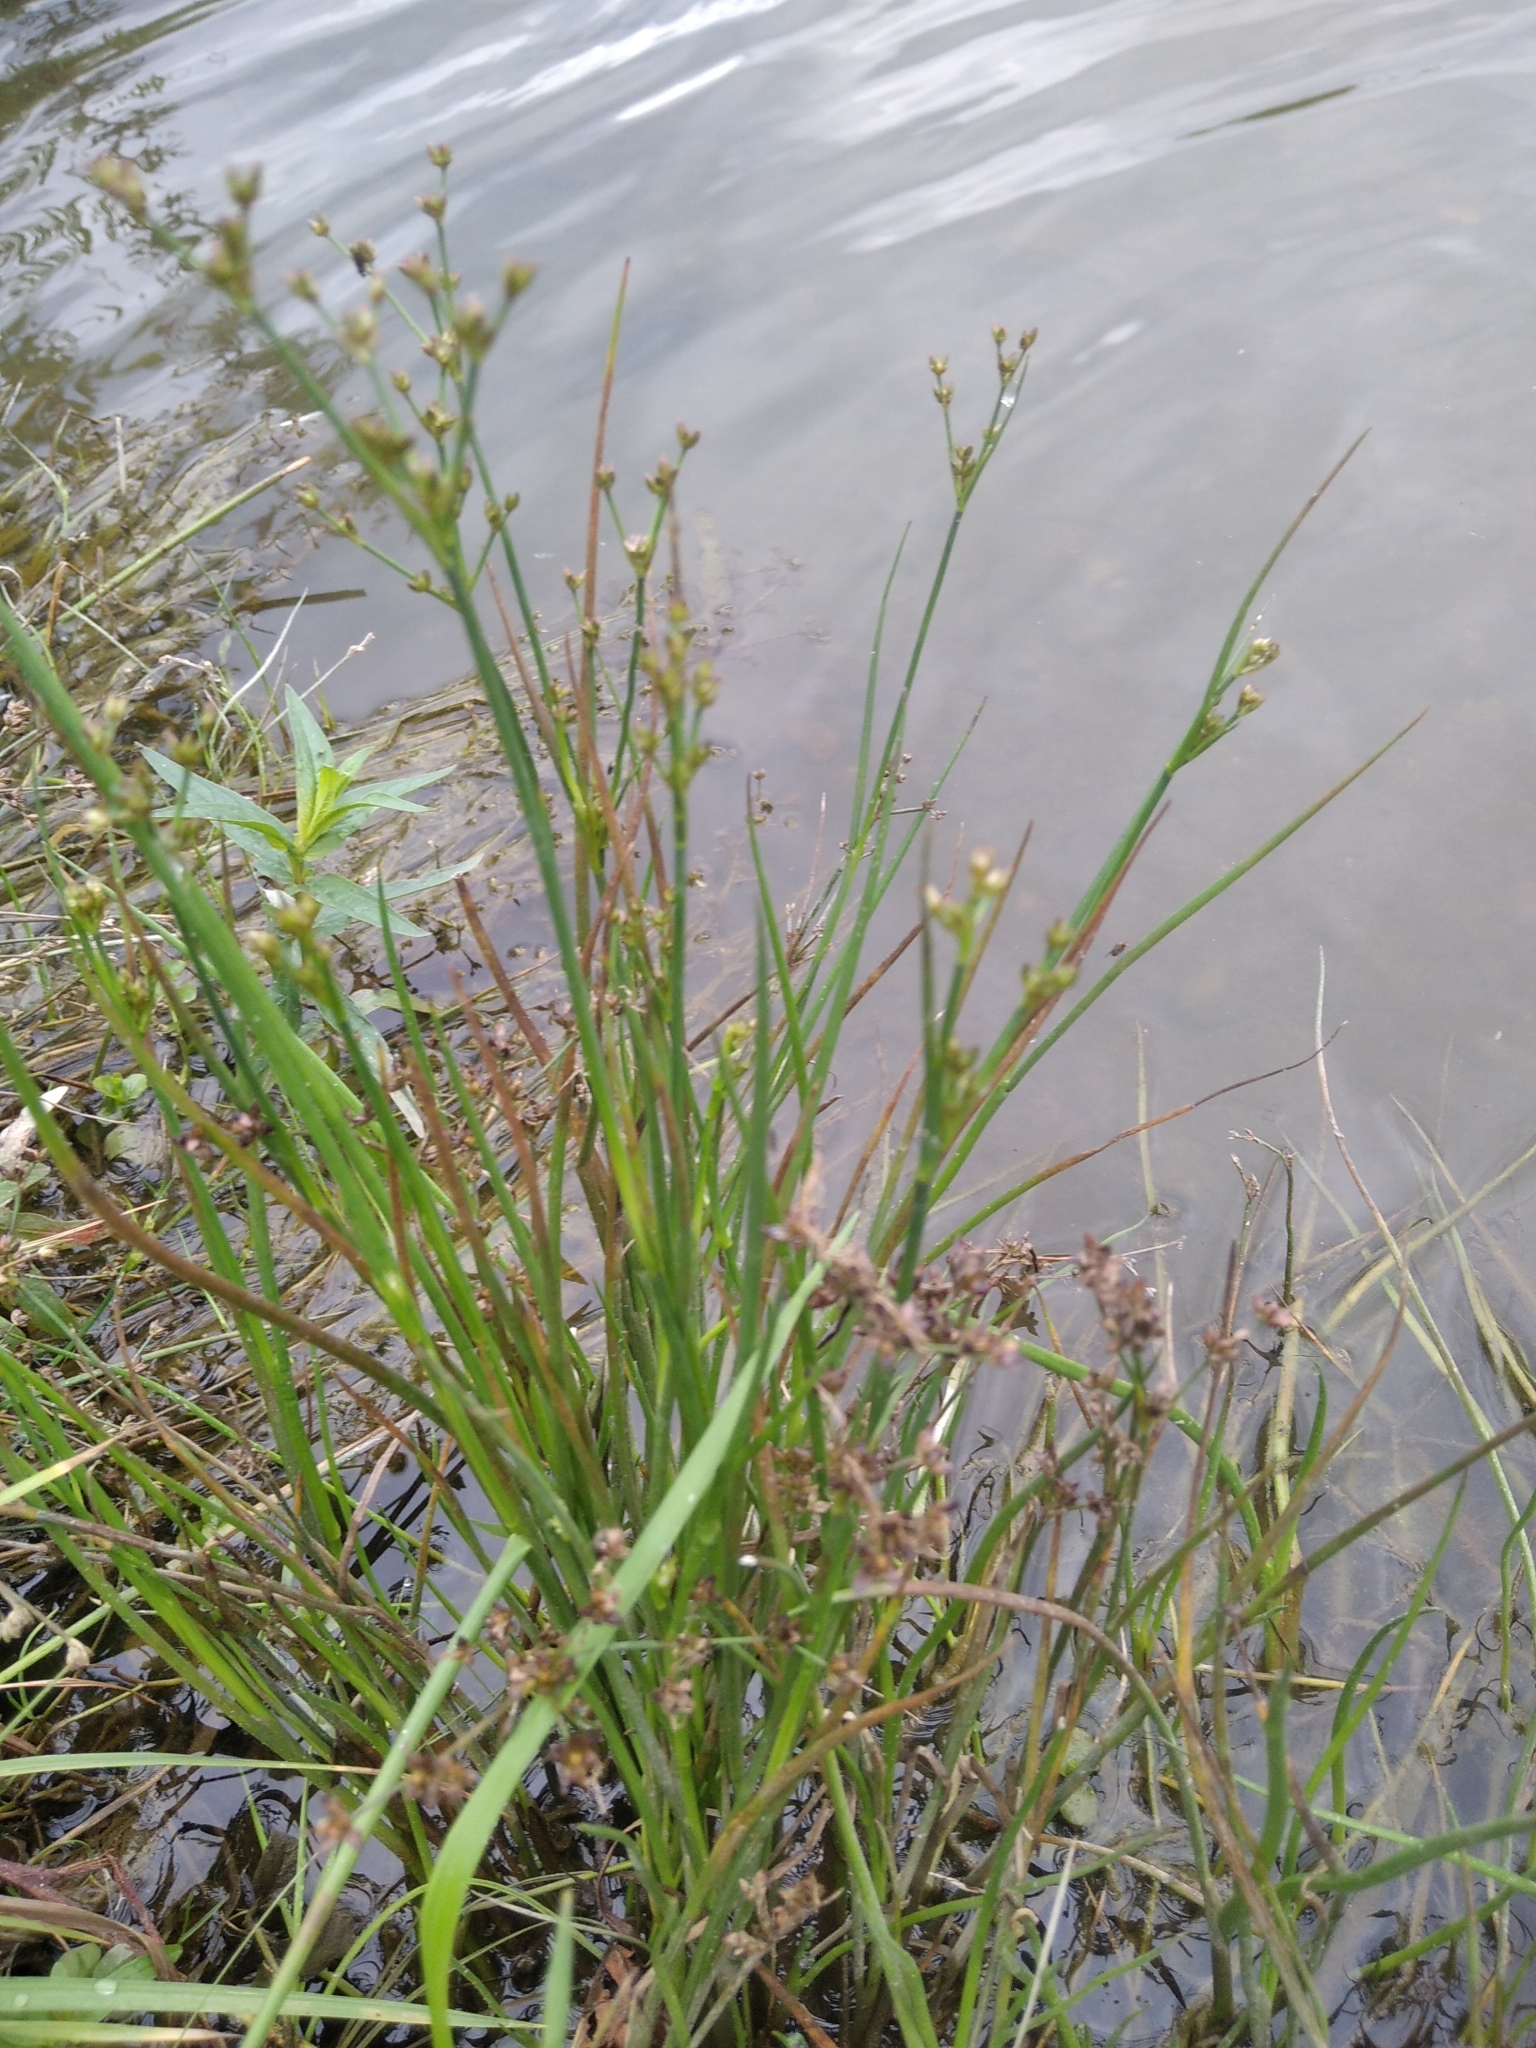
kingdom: Plantae
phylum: Tracheophyta
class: Liliopsida
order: Poales
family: Juncaceae
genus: Juncus
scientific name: Juncus articulatus
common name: Jointed rush
